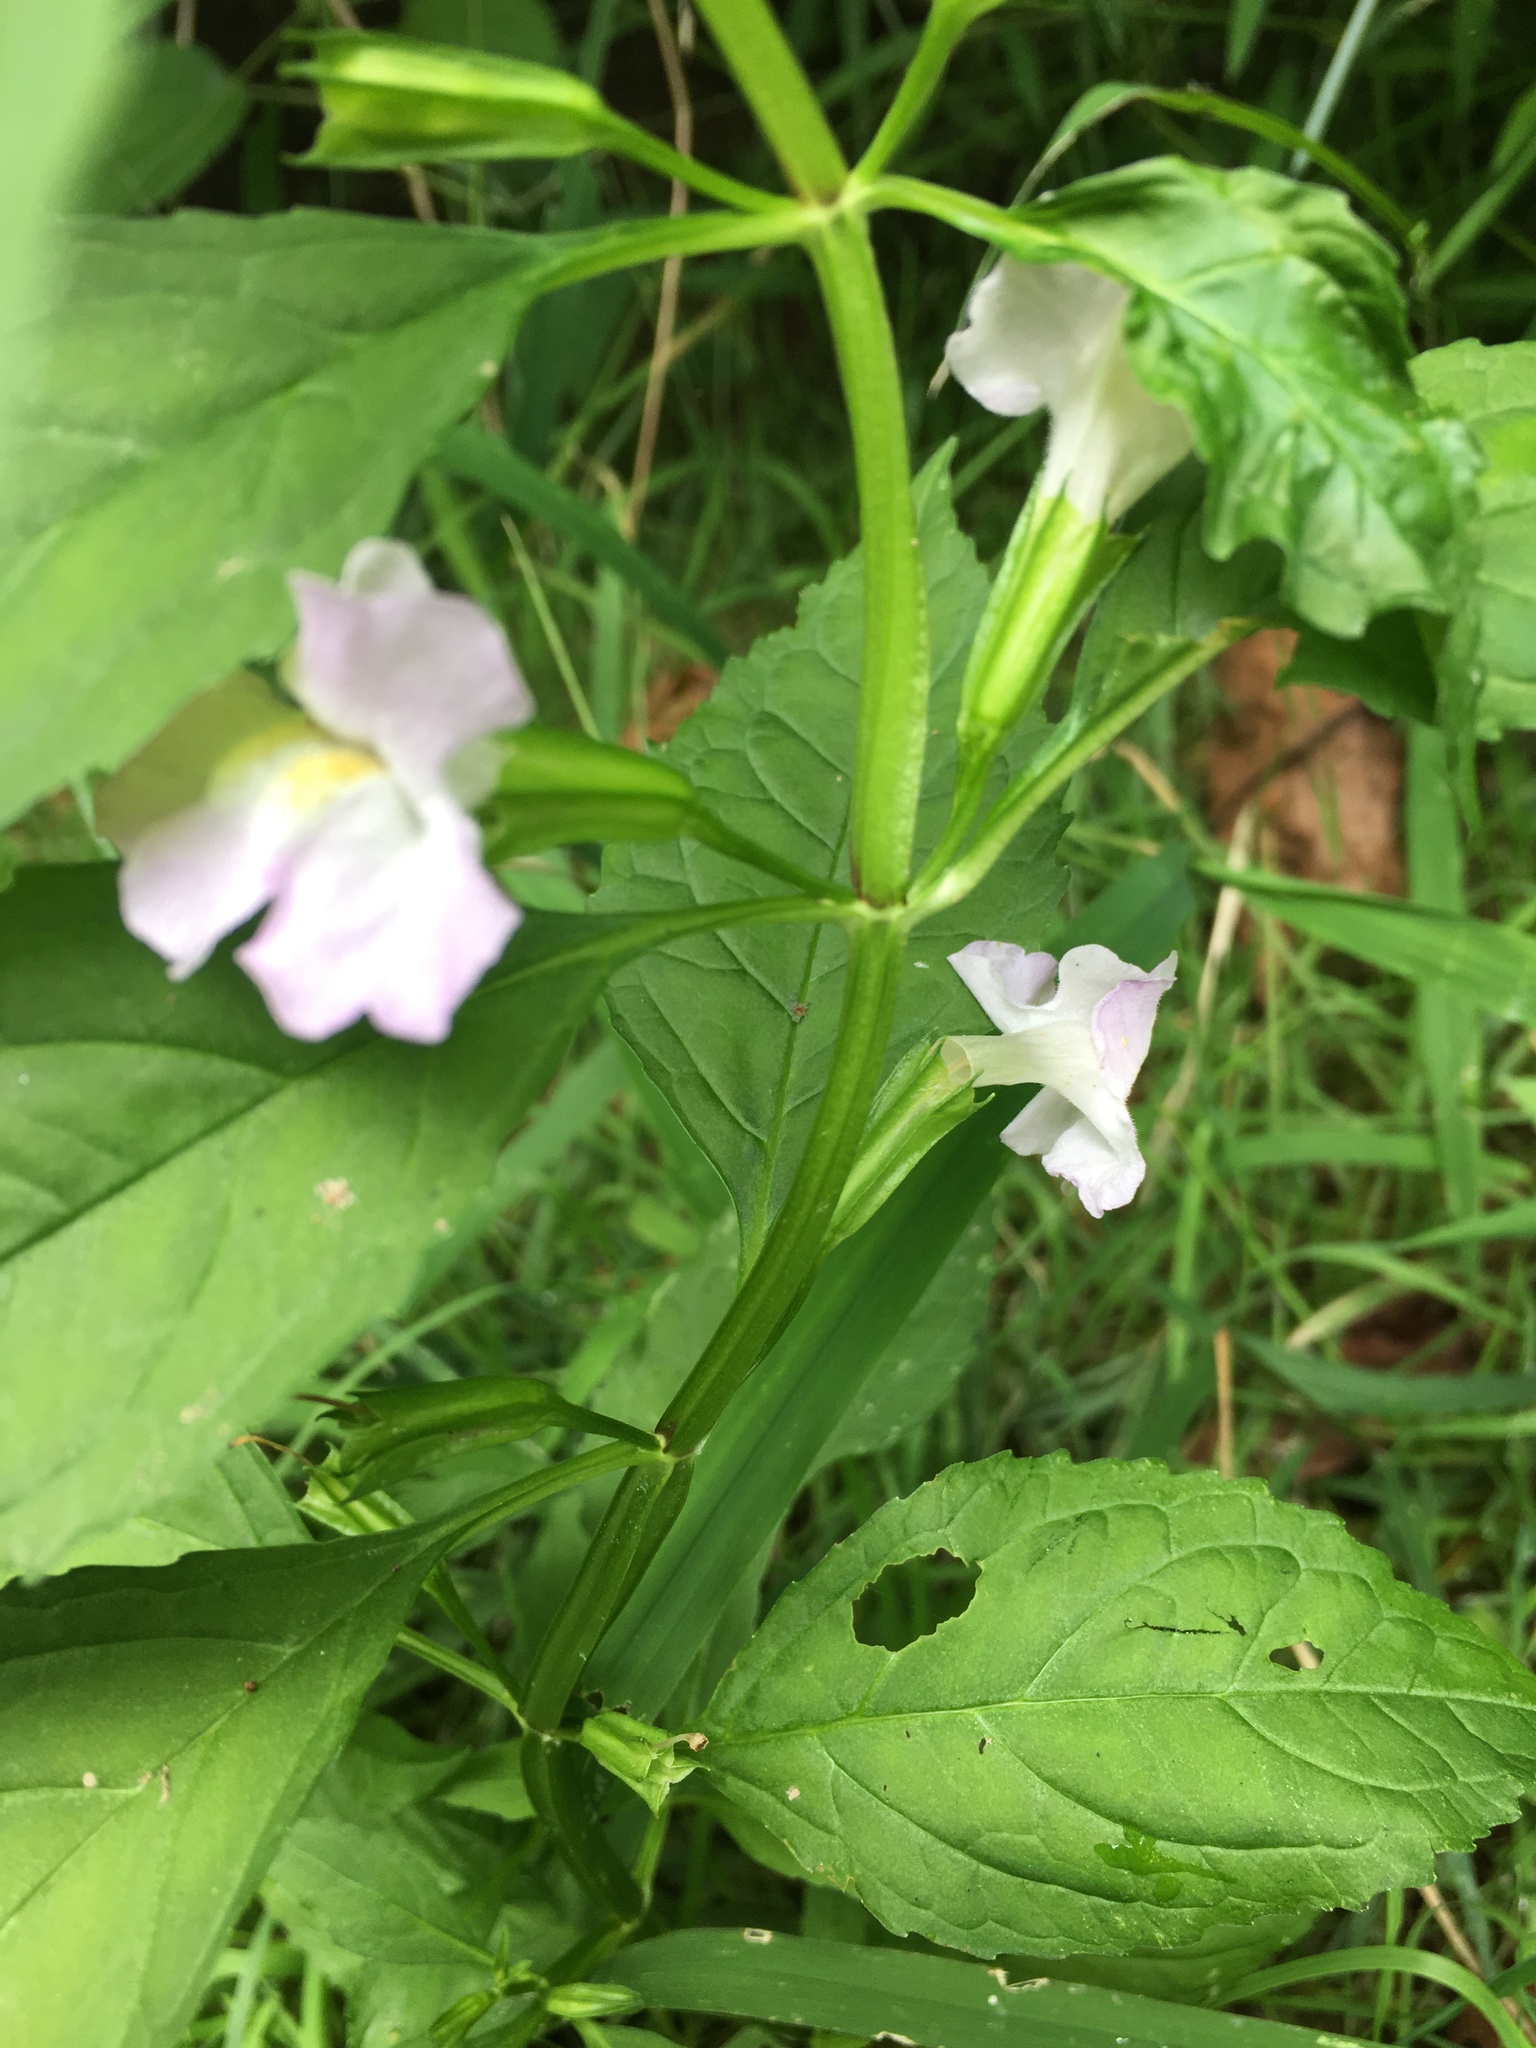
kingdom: Plantae
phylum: Tracheophyta
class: Magnoliopsida
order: Lamiales
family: Phrymaceae
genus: Mimulus
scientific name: Mimulus alatus
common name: Sharp-wing monkey-flower
